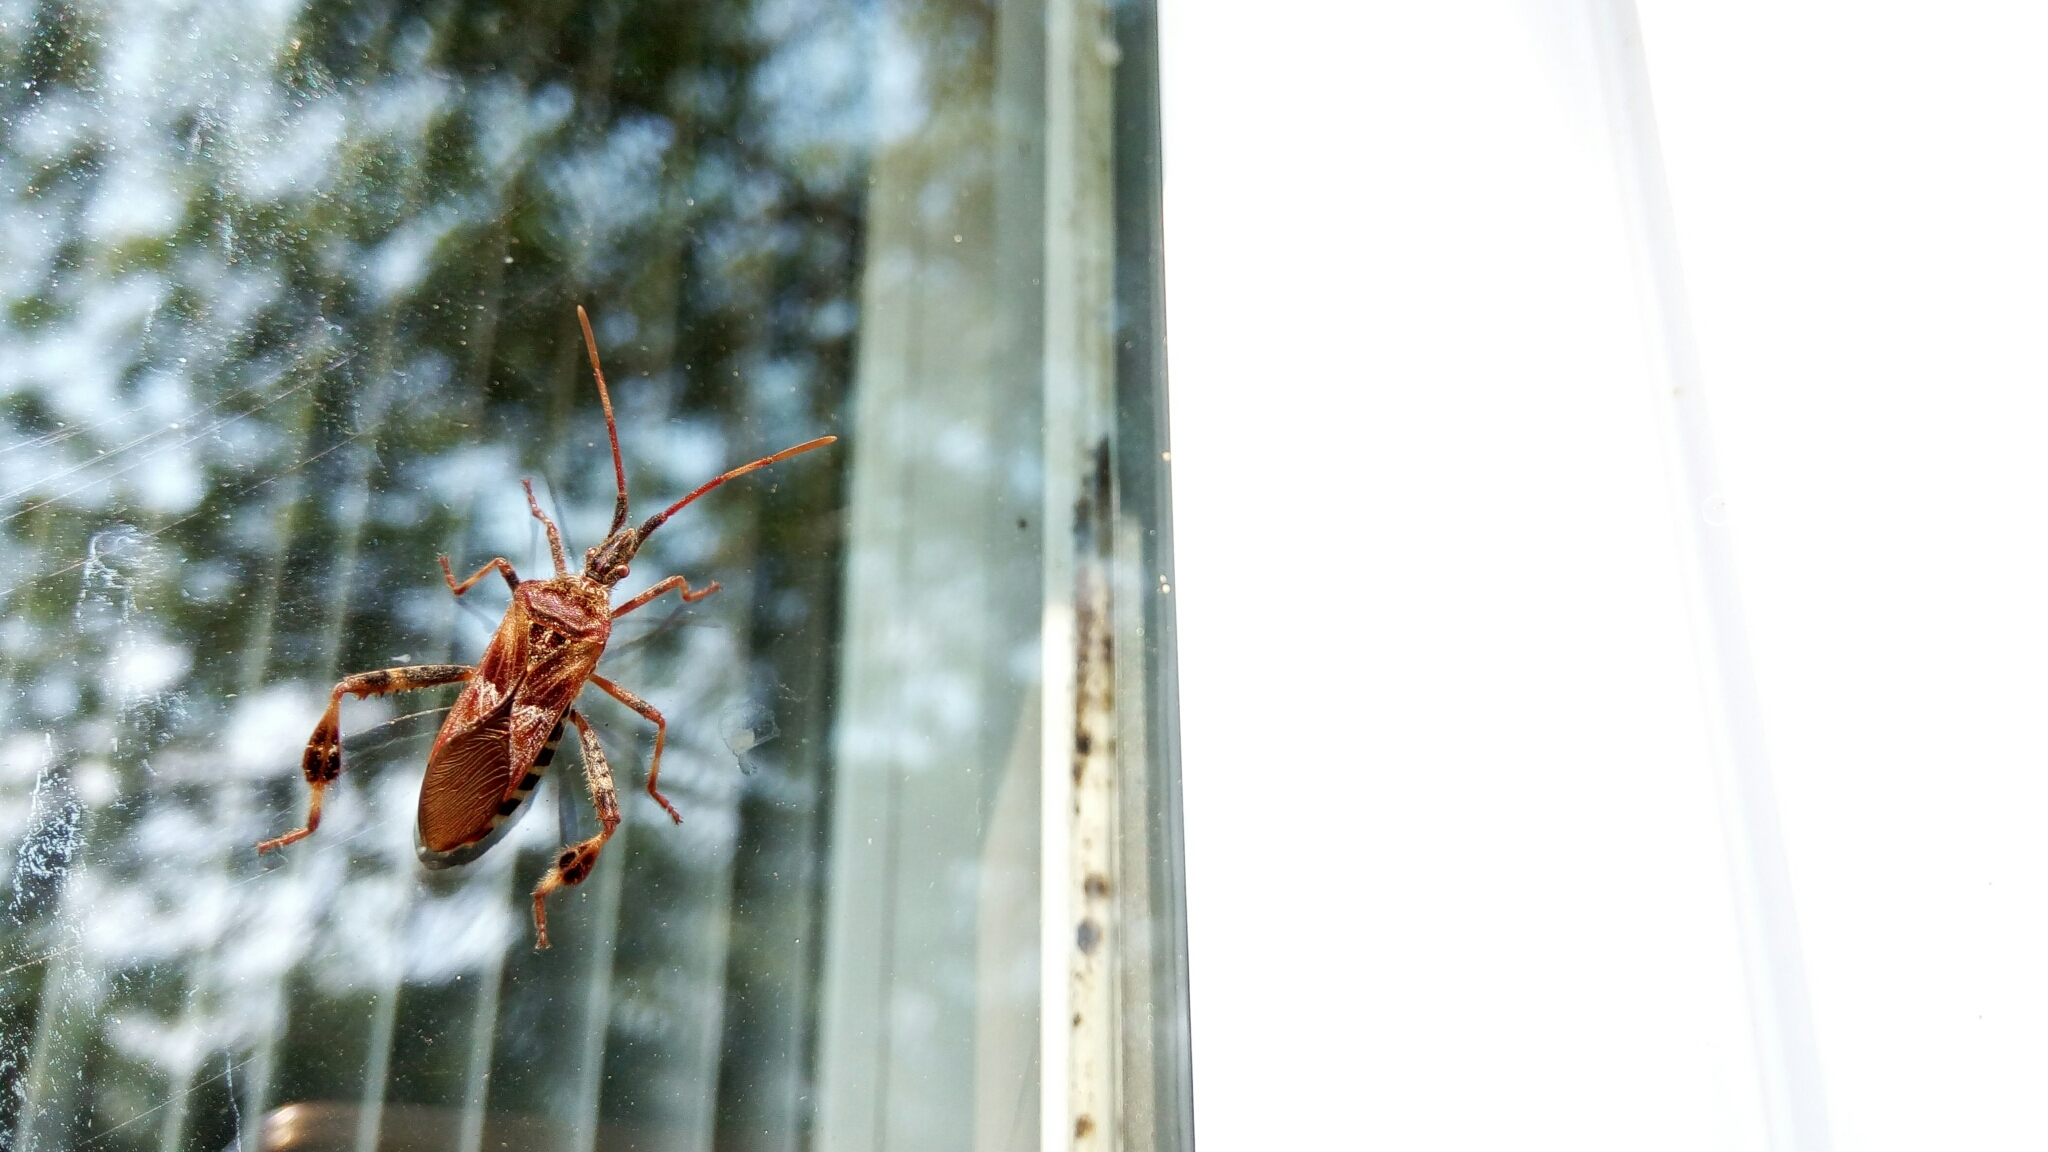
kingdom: Animalia
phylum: Arthropoda
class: Insecta
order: Hemiptera
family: Coreidae
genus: Leptoglossus
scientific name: Leptoglossus occidentalis
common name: Western conifer-seed bug
